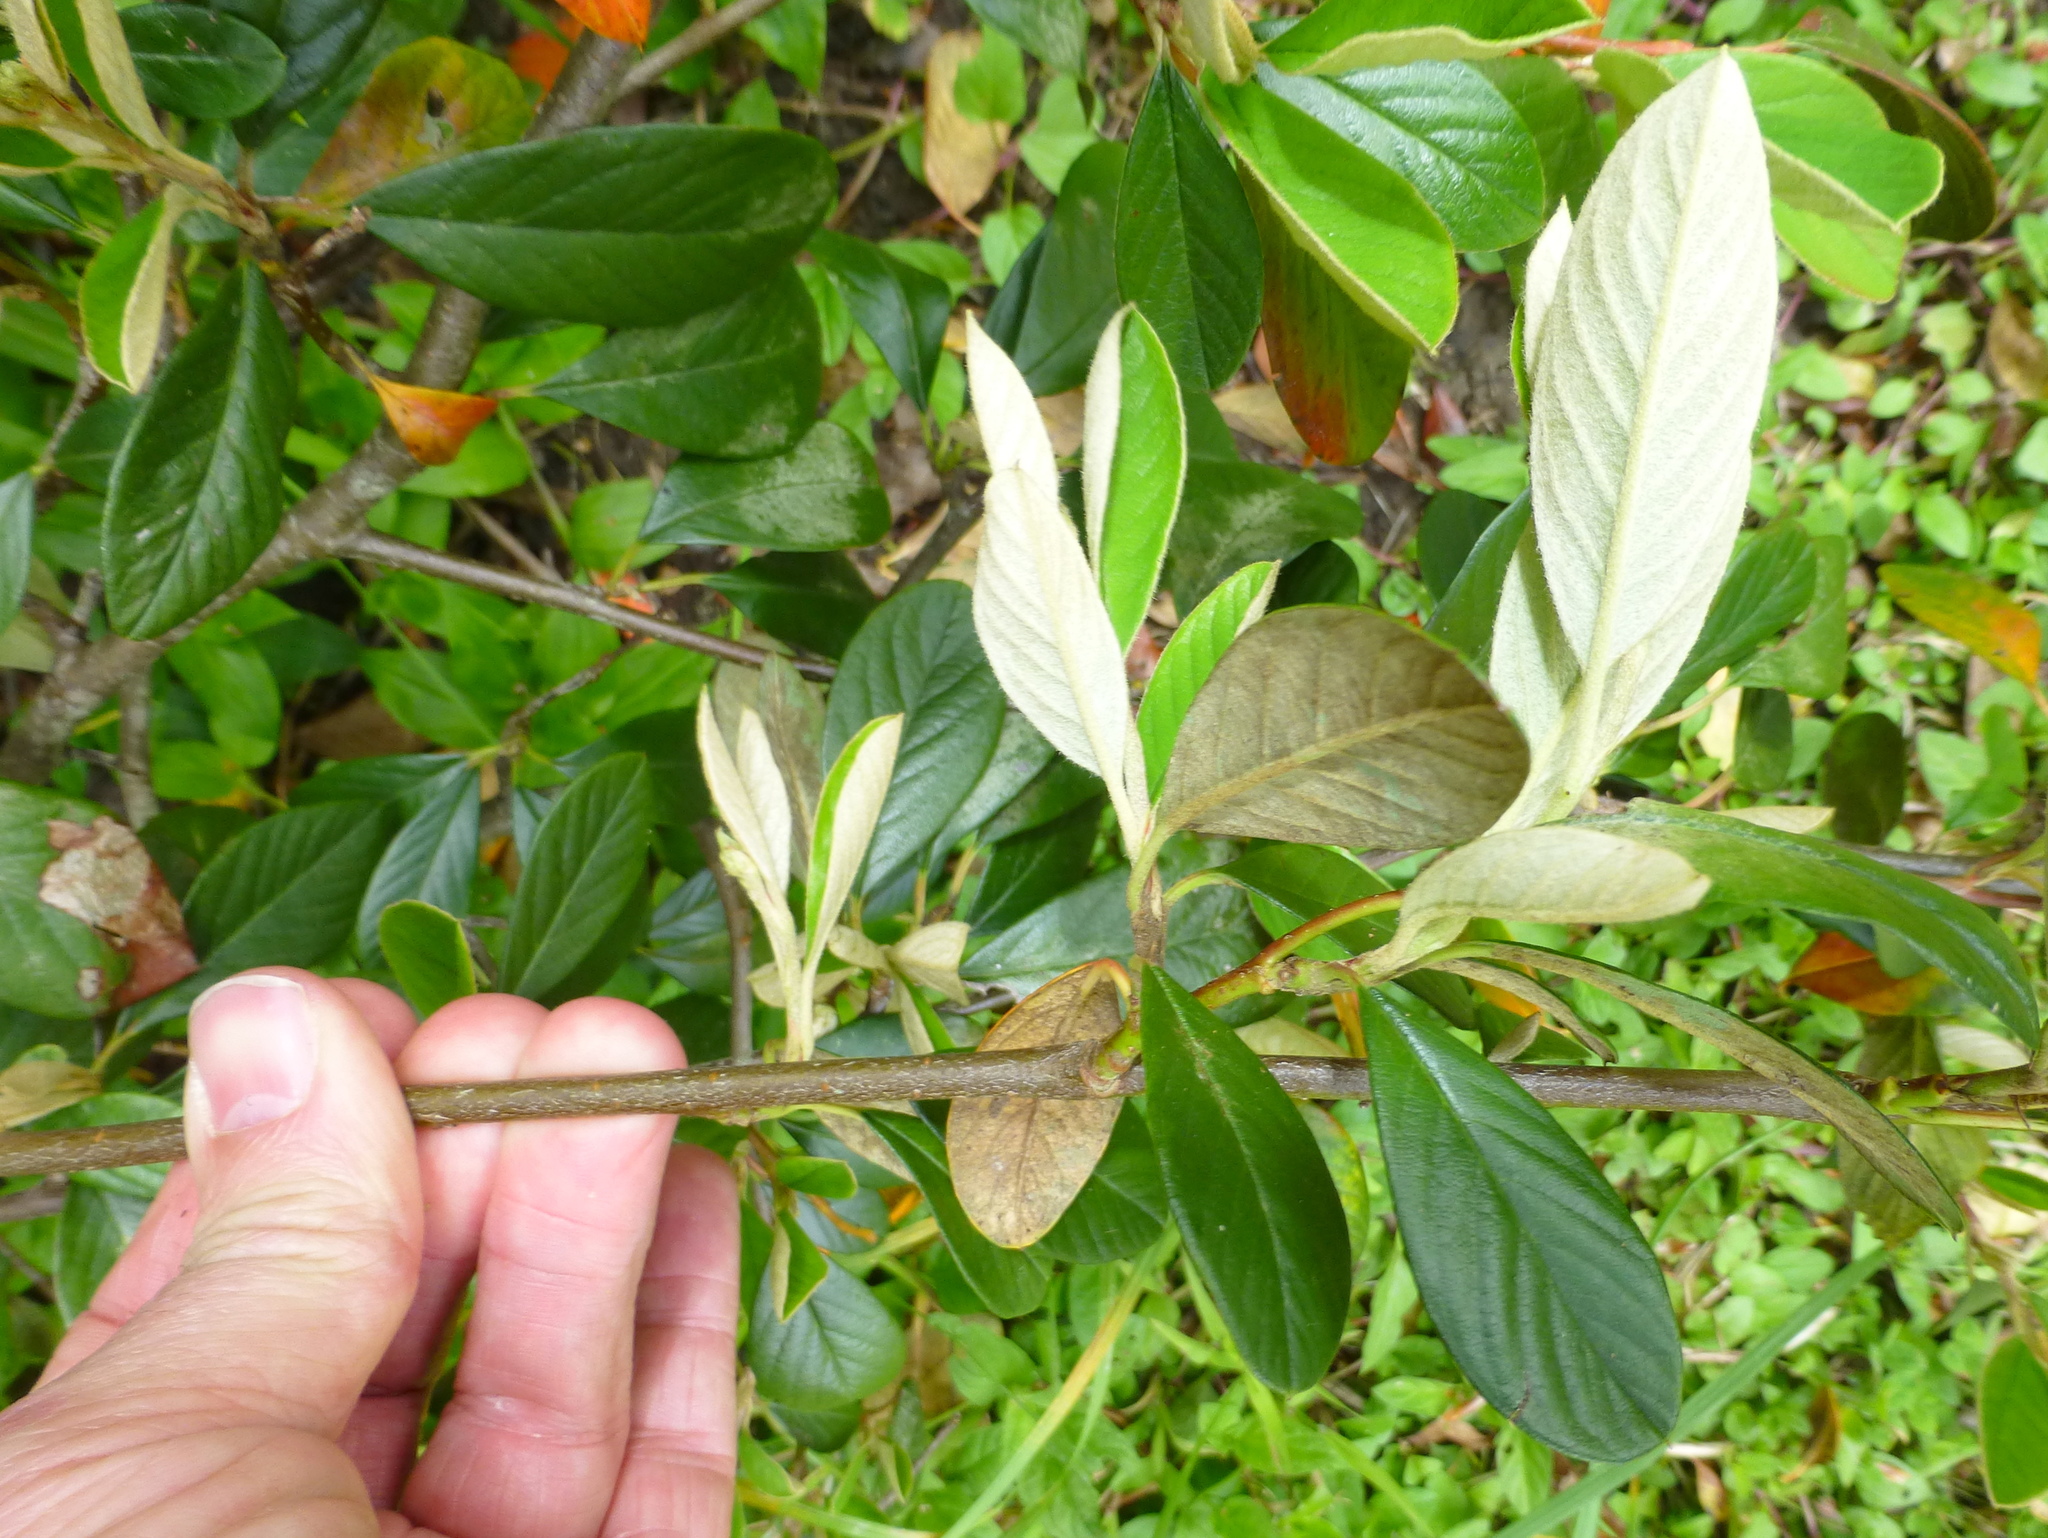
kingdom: Plantae
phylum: Tracheophyta
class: Magnoliopsida
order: Rosales
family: Rosaceae
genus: Cotoneaster
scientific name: Cotoneaster coriaceus
